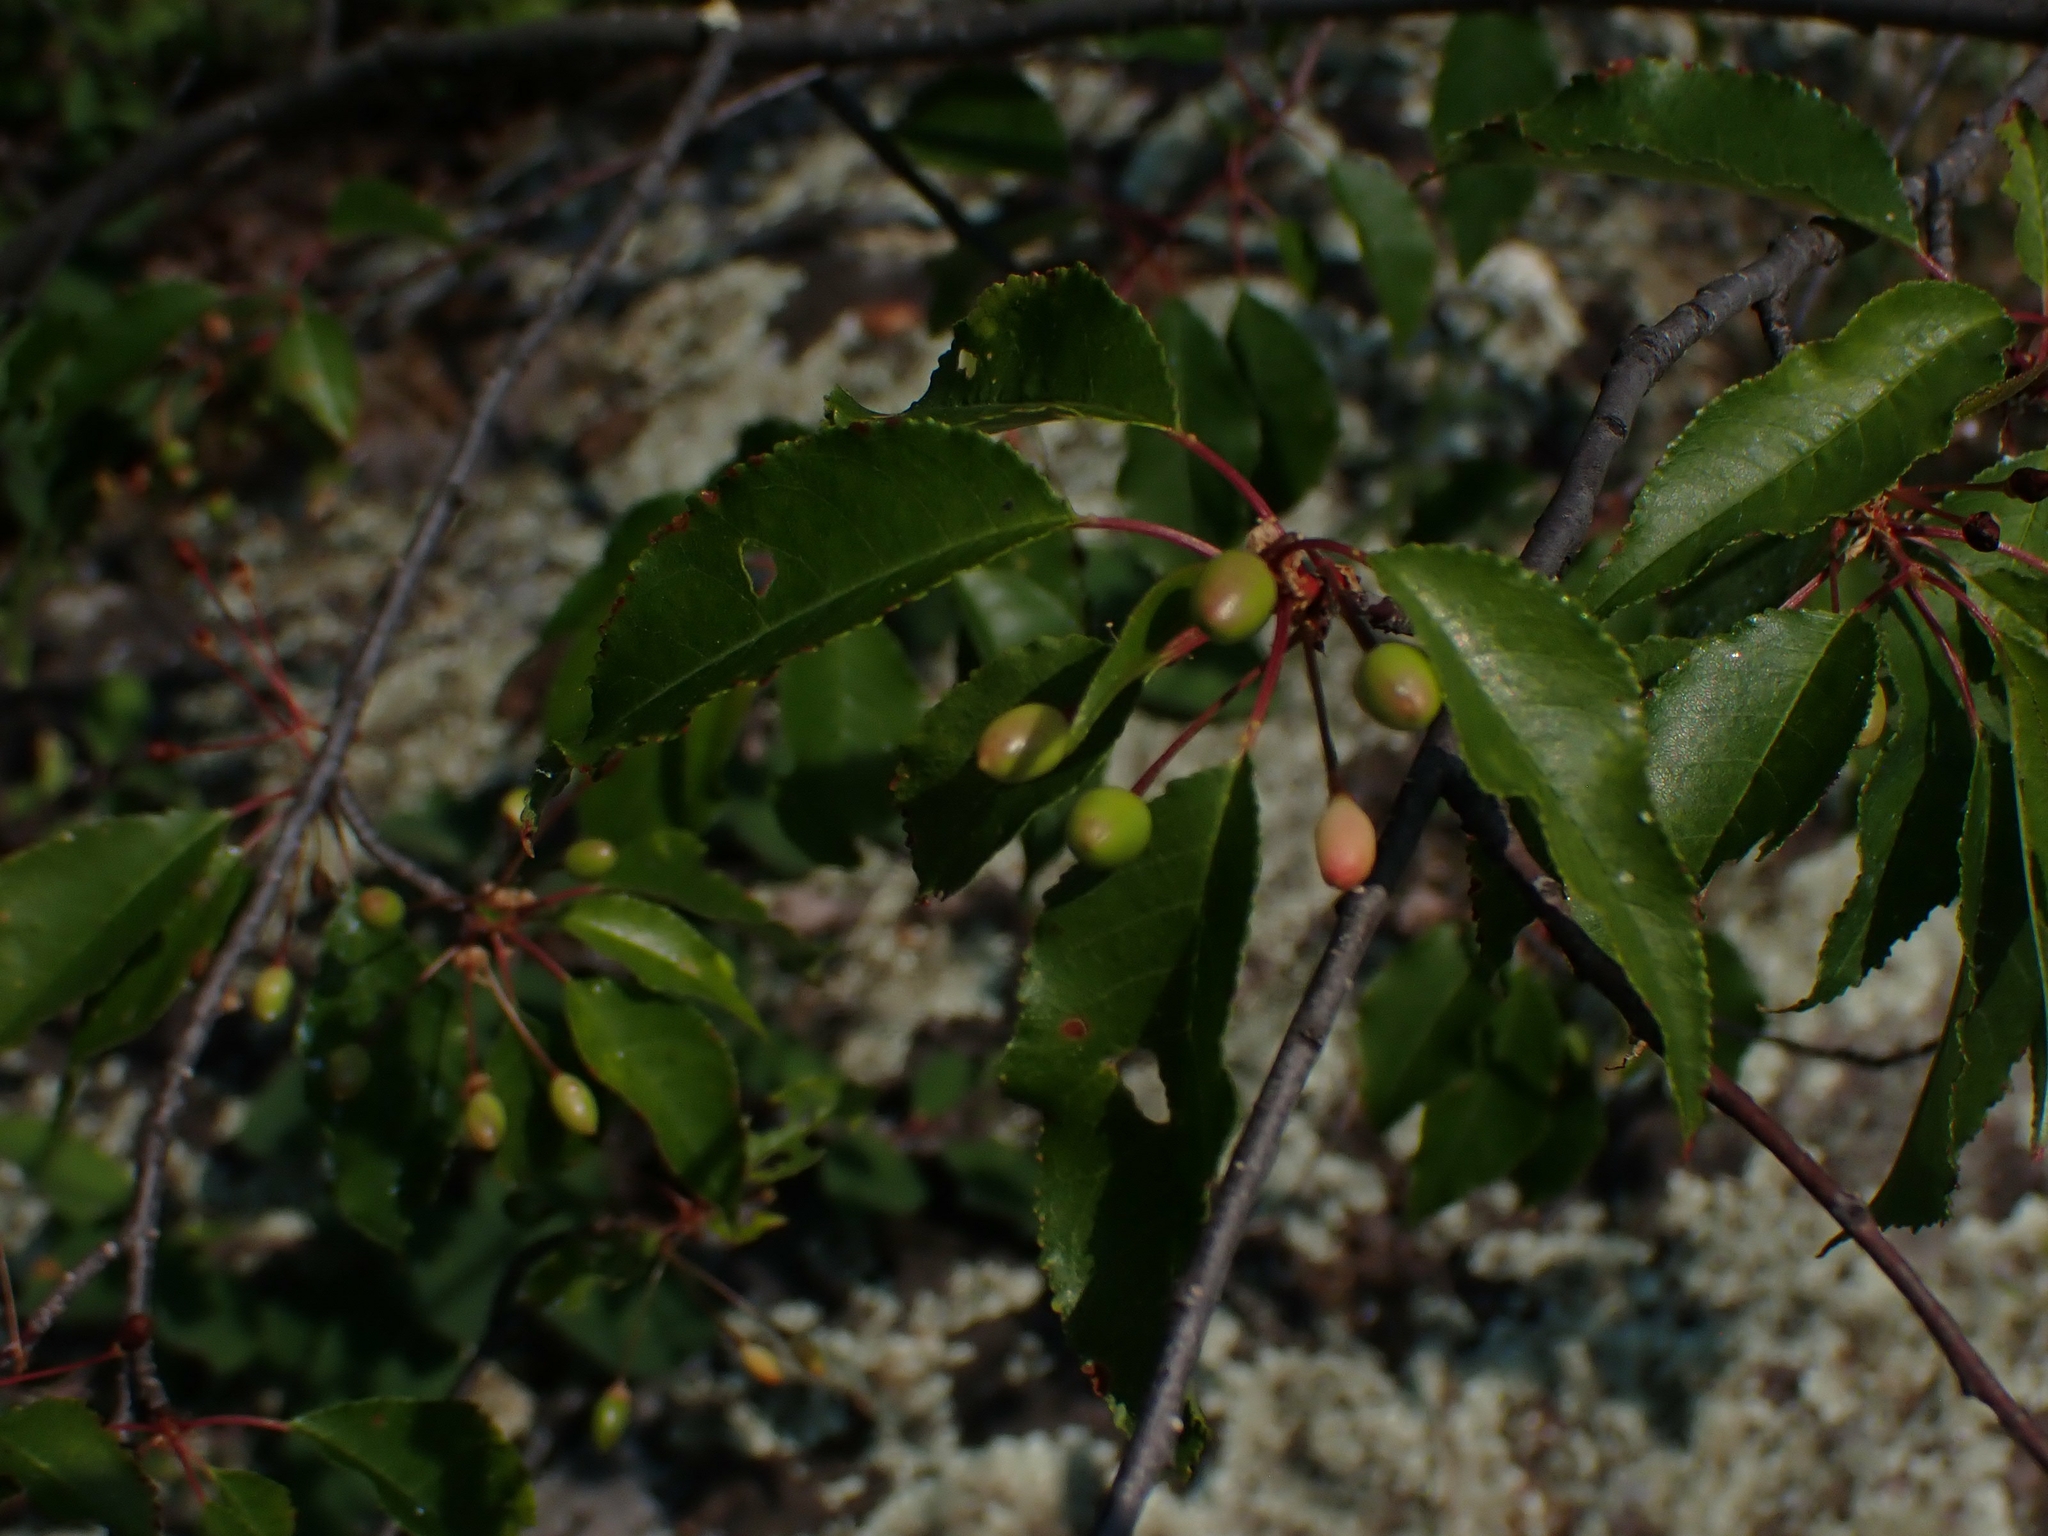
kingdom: Plantae
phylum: Tracheophyta
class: Magnoliopsida
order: Rosales
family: Rosaceae
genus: Prunus
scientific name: Prunus pensylvanica
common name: Pin cherry
